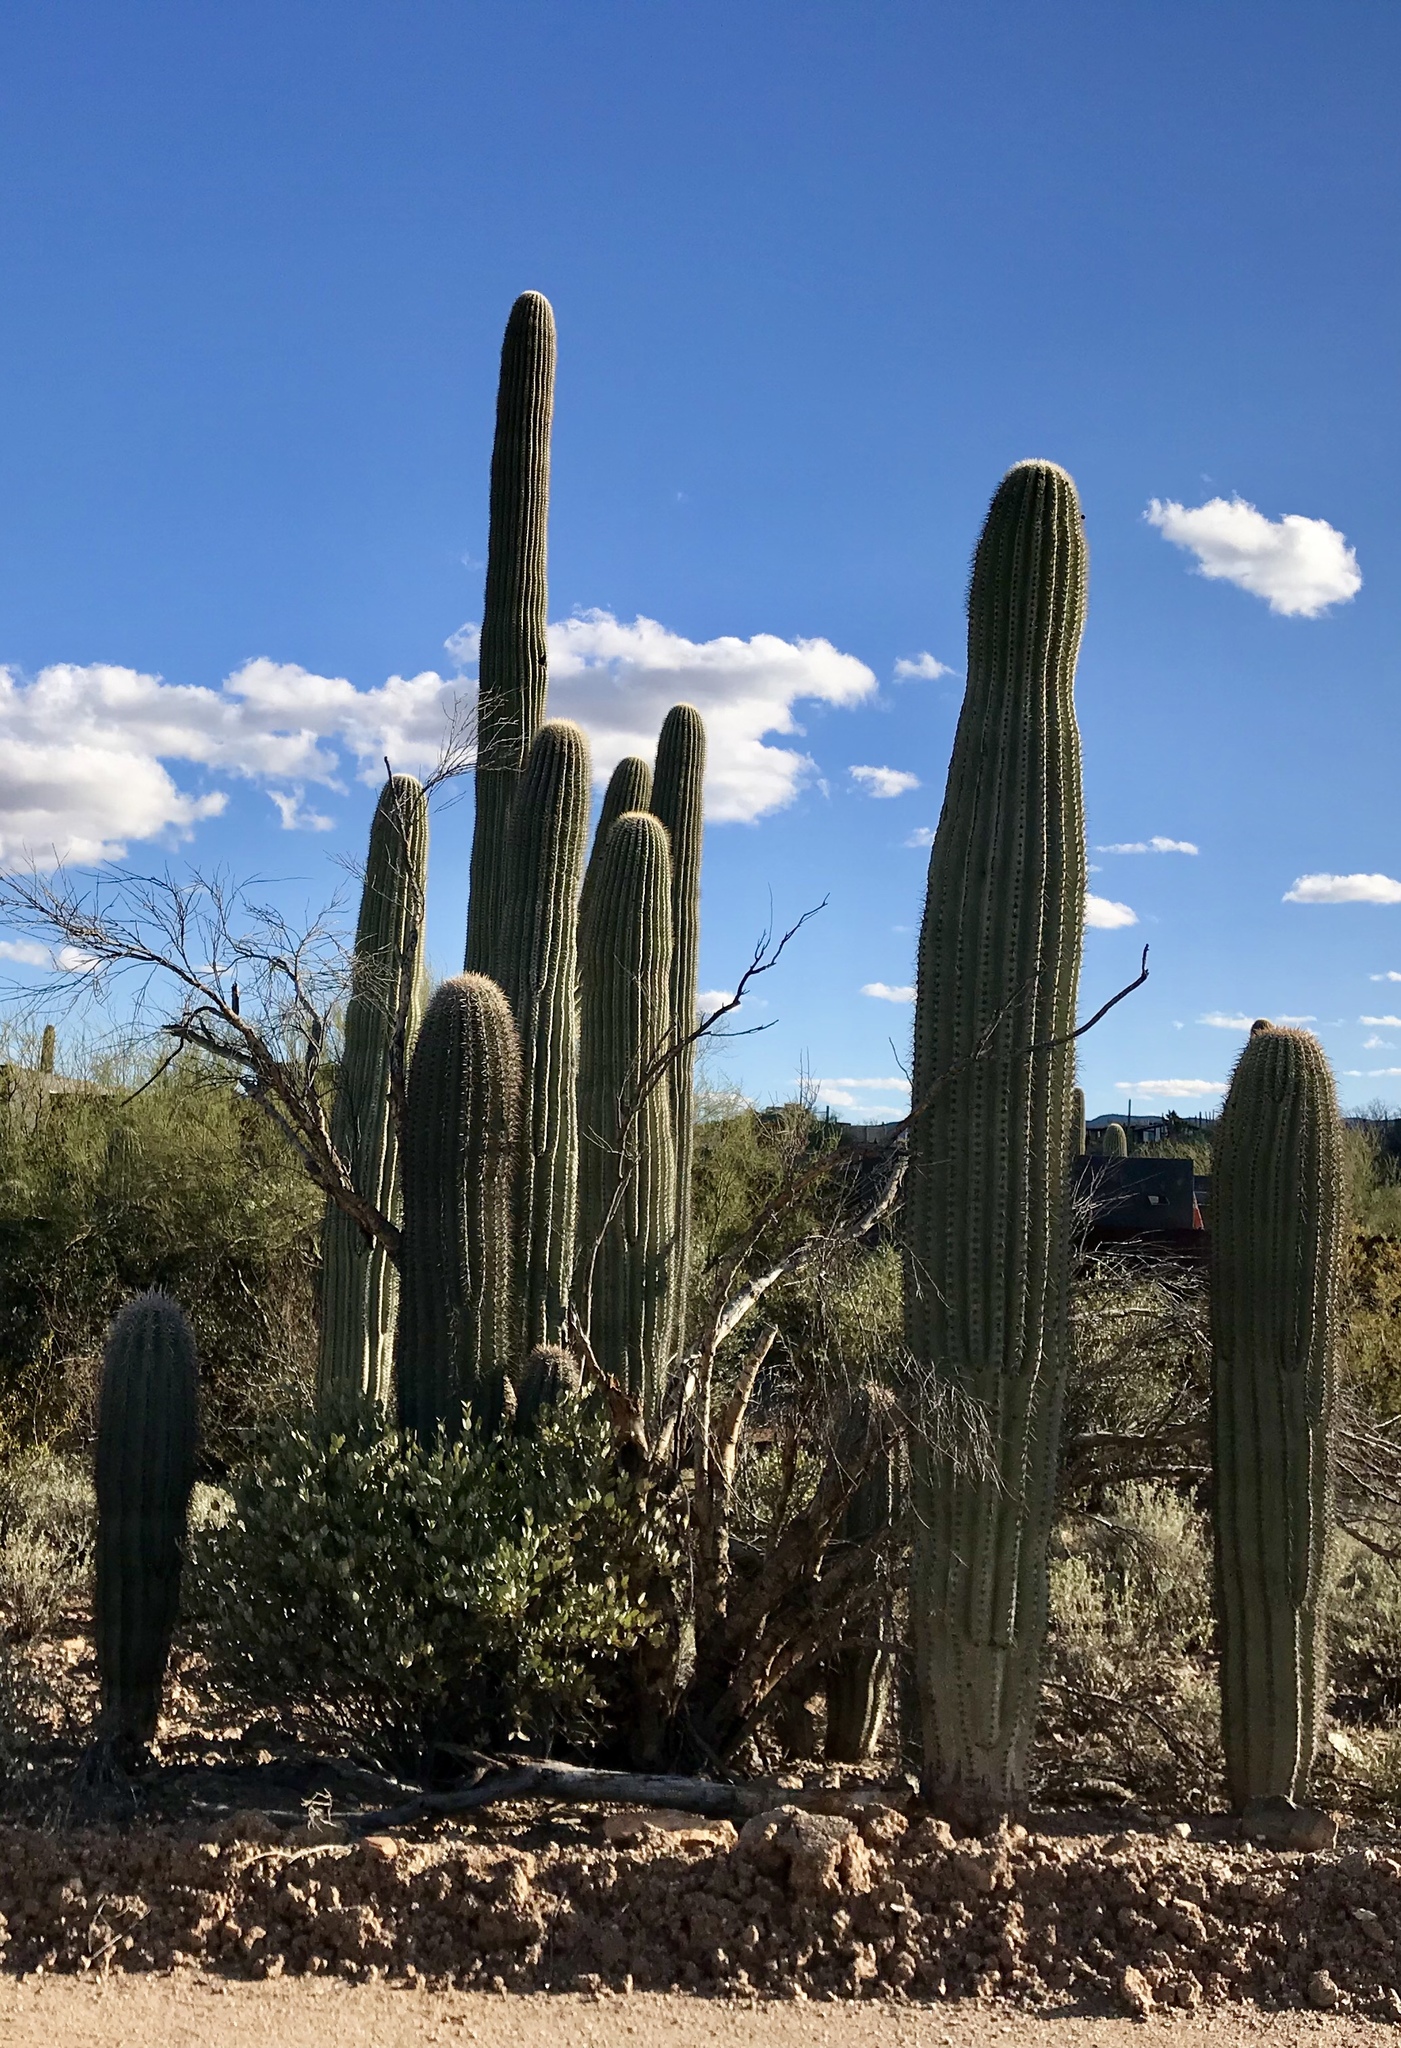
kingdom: Plantae
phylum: Tracheophyta
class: Magnoliopsida
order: Caryophyllales
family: Cactaceae
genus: Carnegiea
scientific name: Carnegiea gigantea
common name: Saguaro
